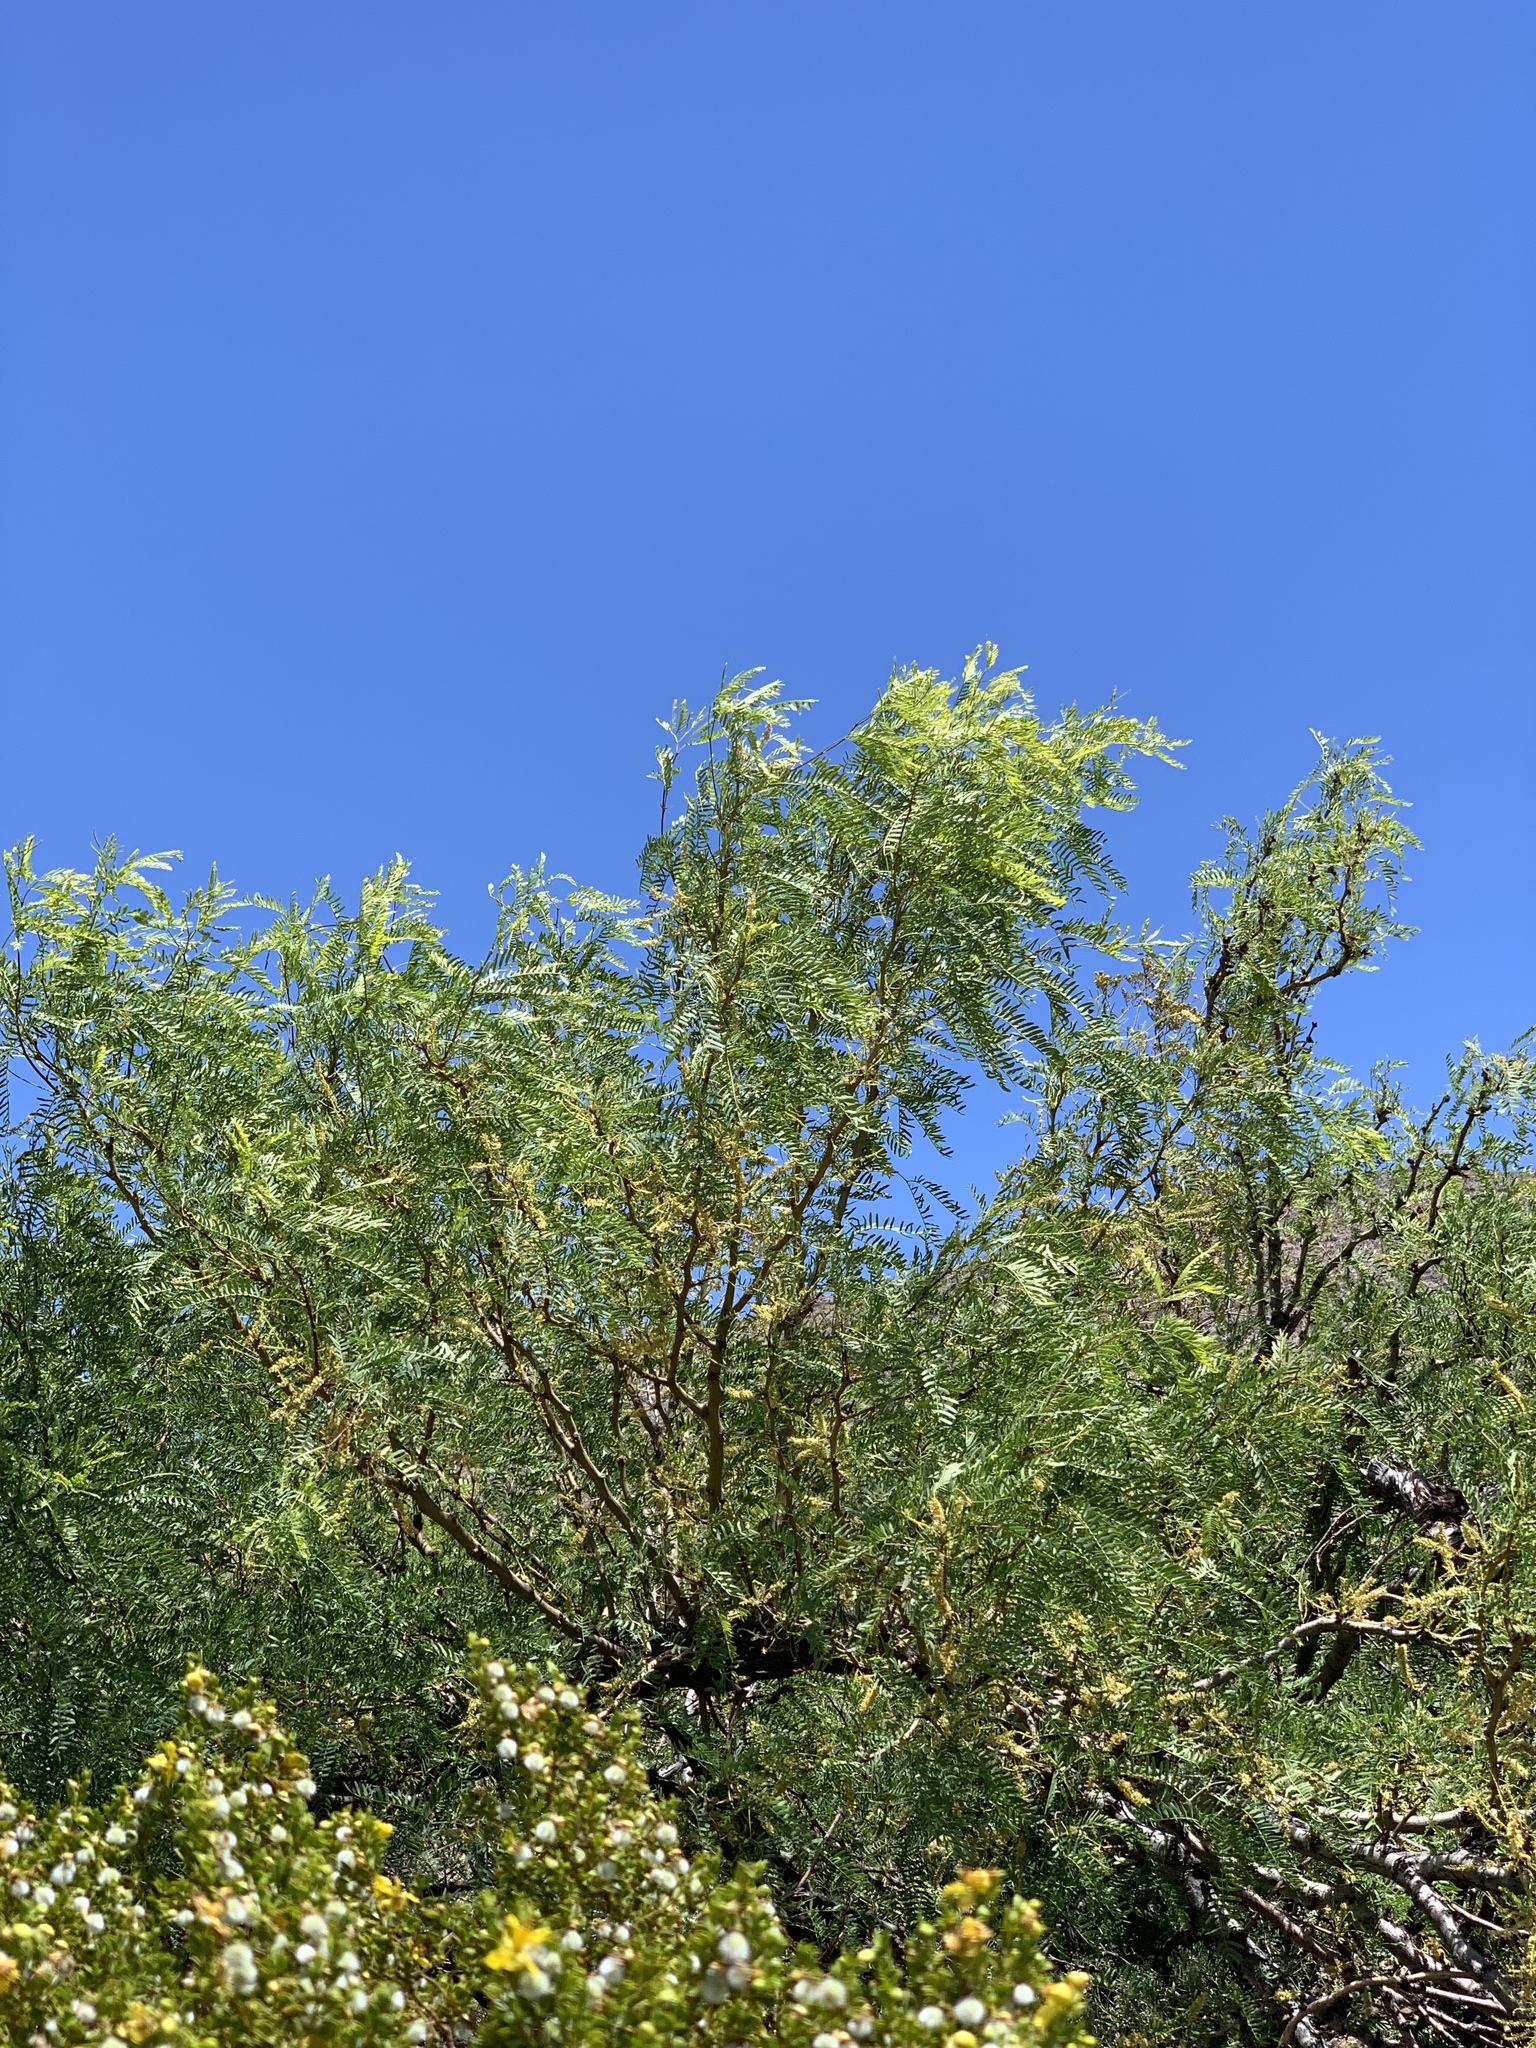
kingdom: Plantae
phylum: Tracheophyta
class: Magnoliopsida
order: Fabales
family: Fabaceae
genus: Prosopis
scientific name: Prosopis glandulosa
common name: Honey mesquite
